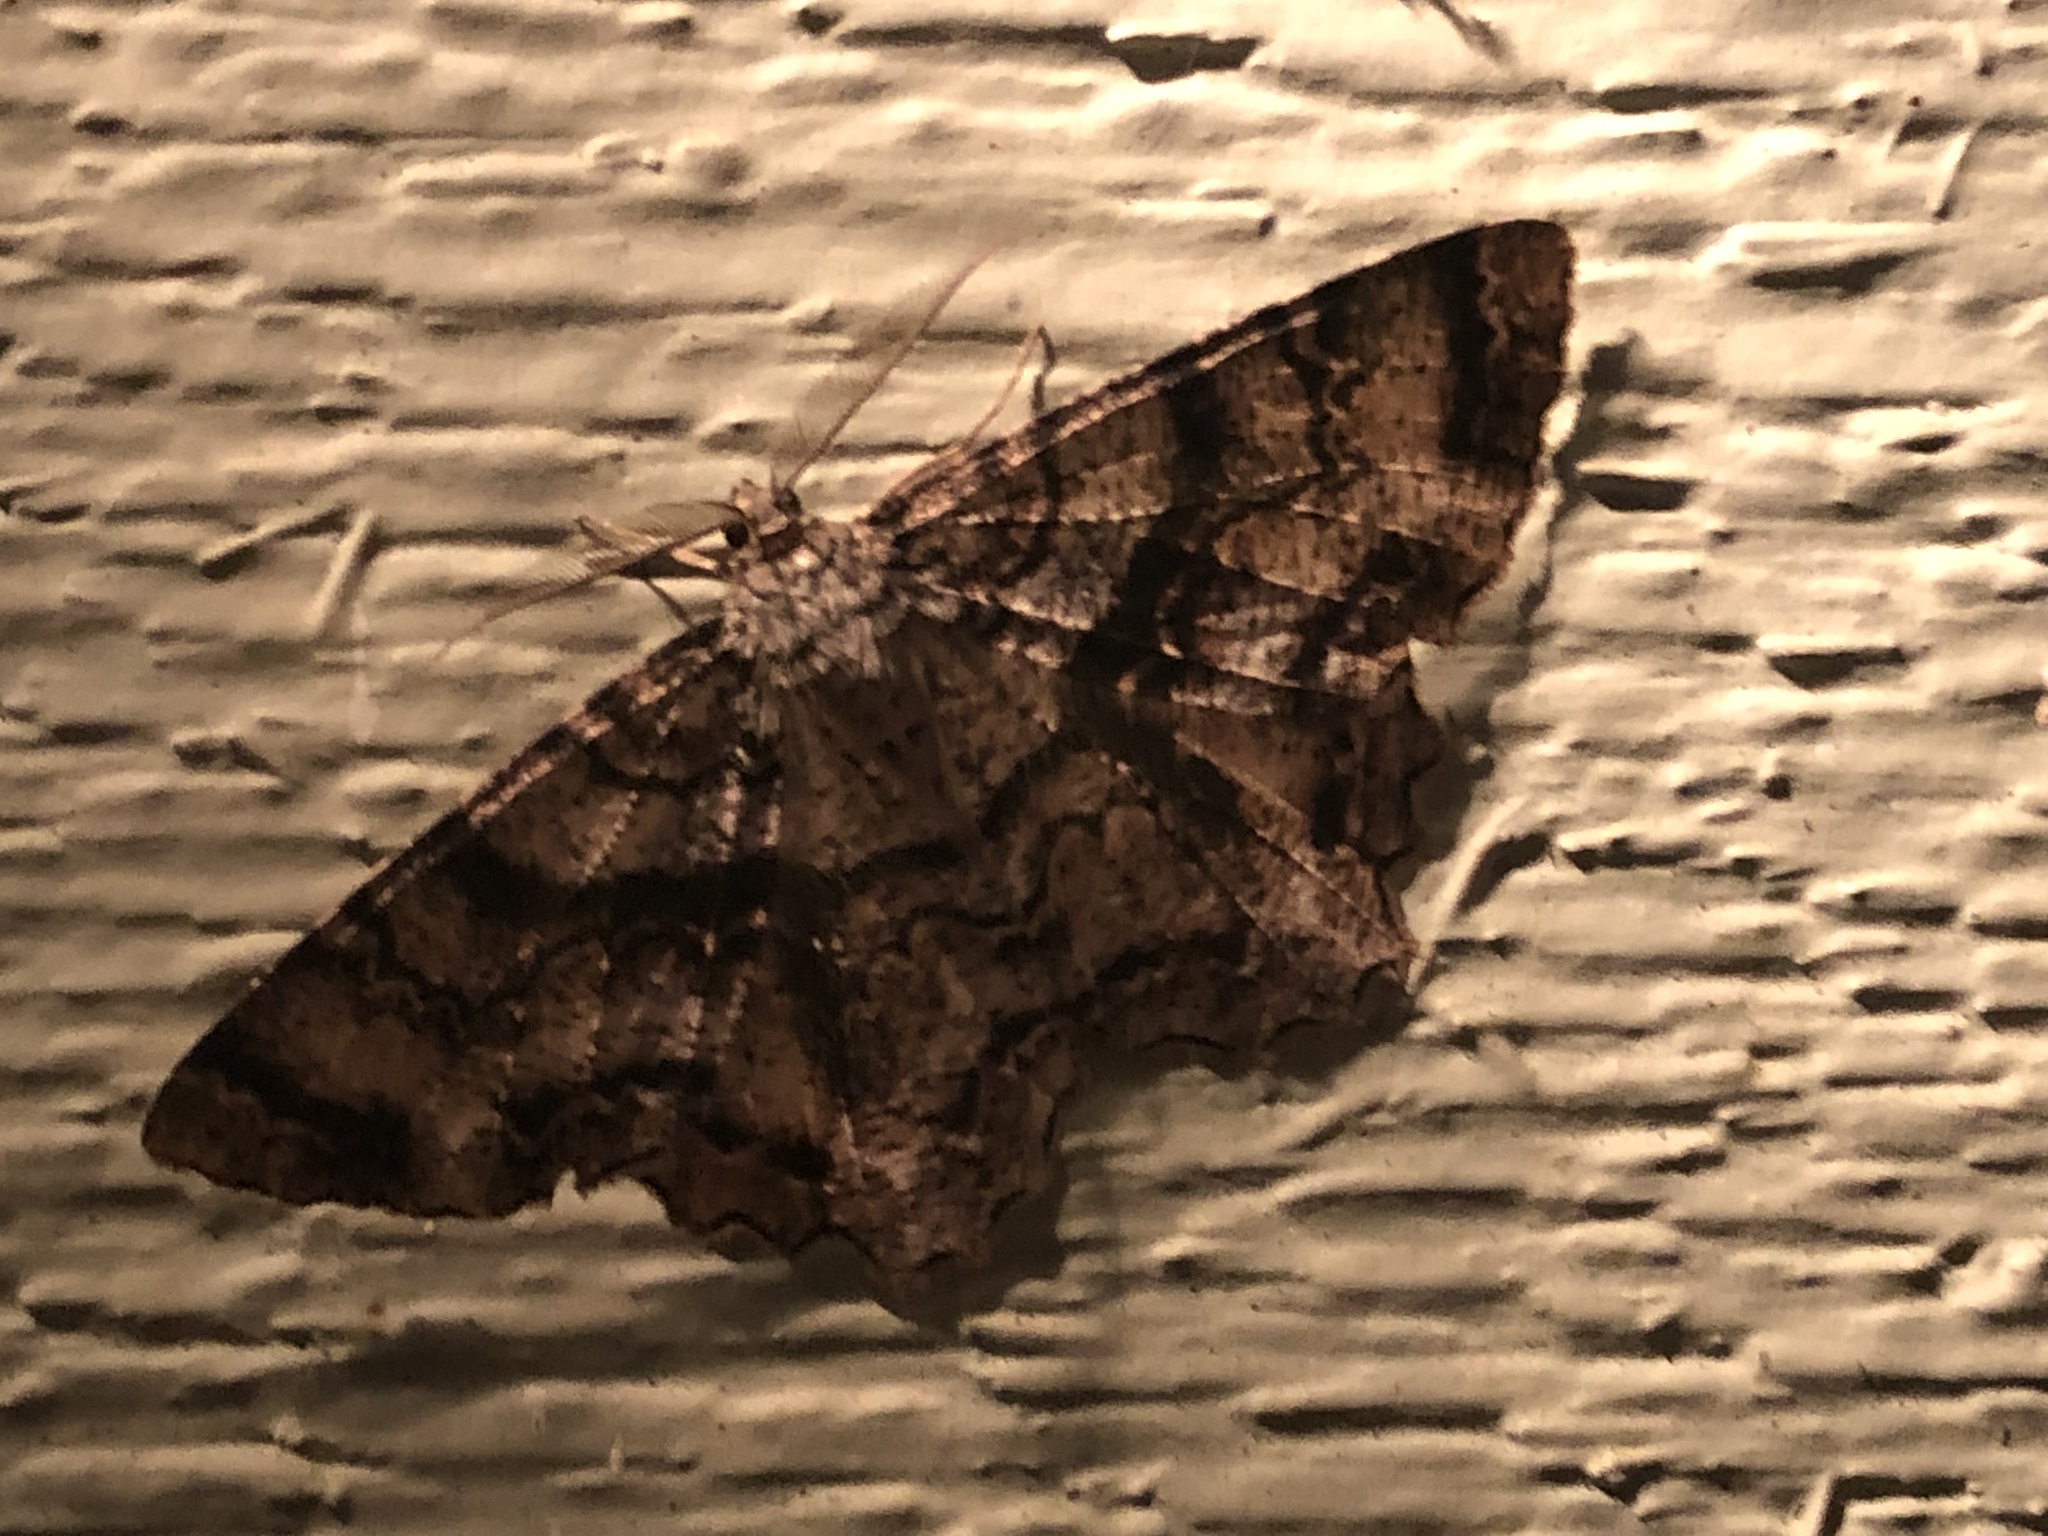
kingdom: Animalia
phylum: Arthropoda
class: Insecta
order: Lepidoptera
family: Geometridae
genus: Epimecis
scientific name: Epimecis hortaria
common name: Tulip-tree beauty
